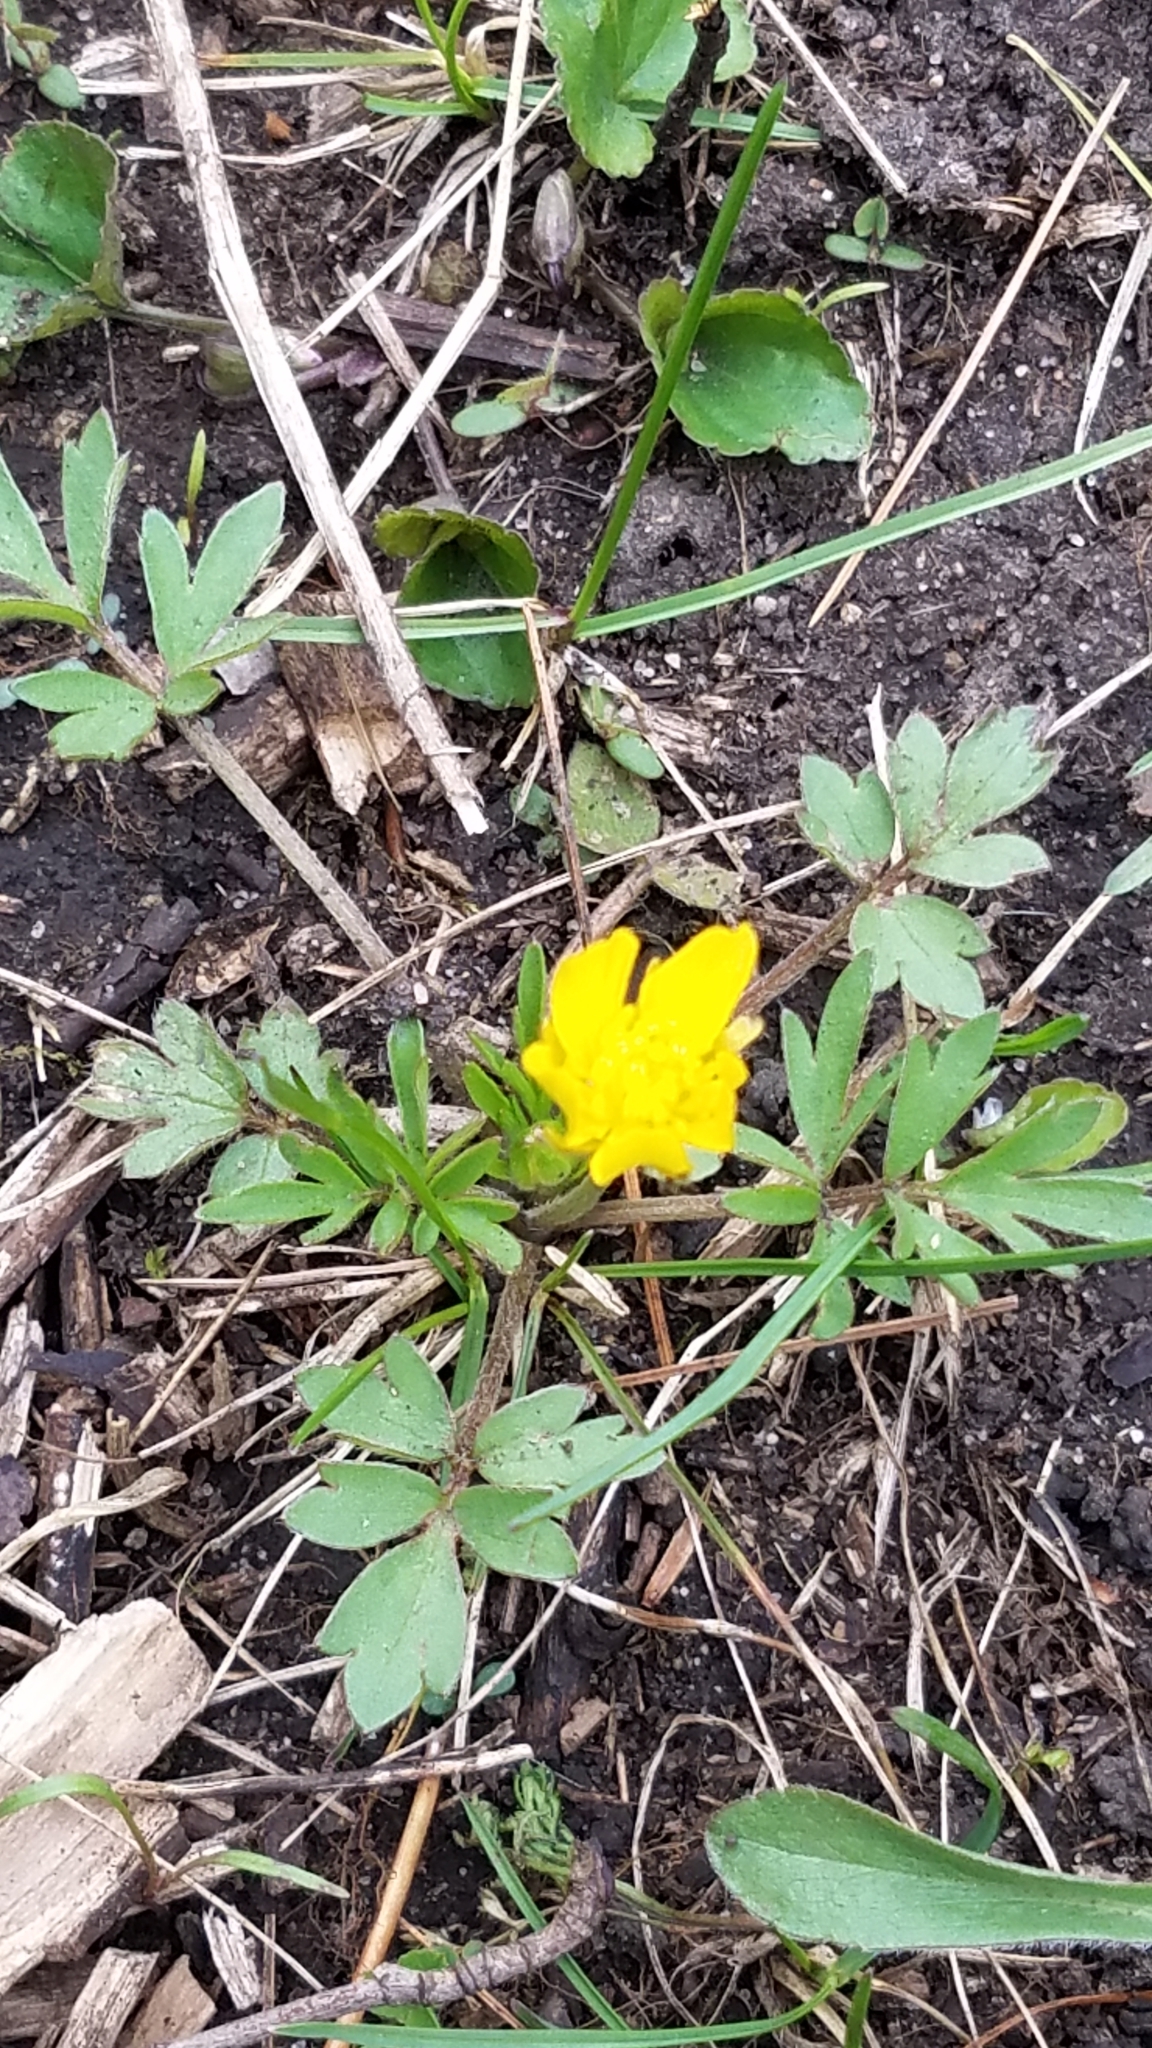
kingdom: Plantae
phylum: Tracheophyta
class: Magnoliopsida
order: Ranunculales
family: Ranunculaceae
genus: Ranunculus
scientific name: Ranunculus fascicularis
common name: Early buttercup
